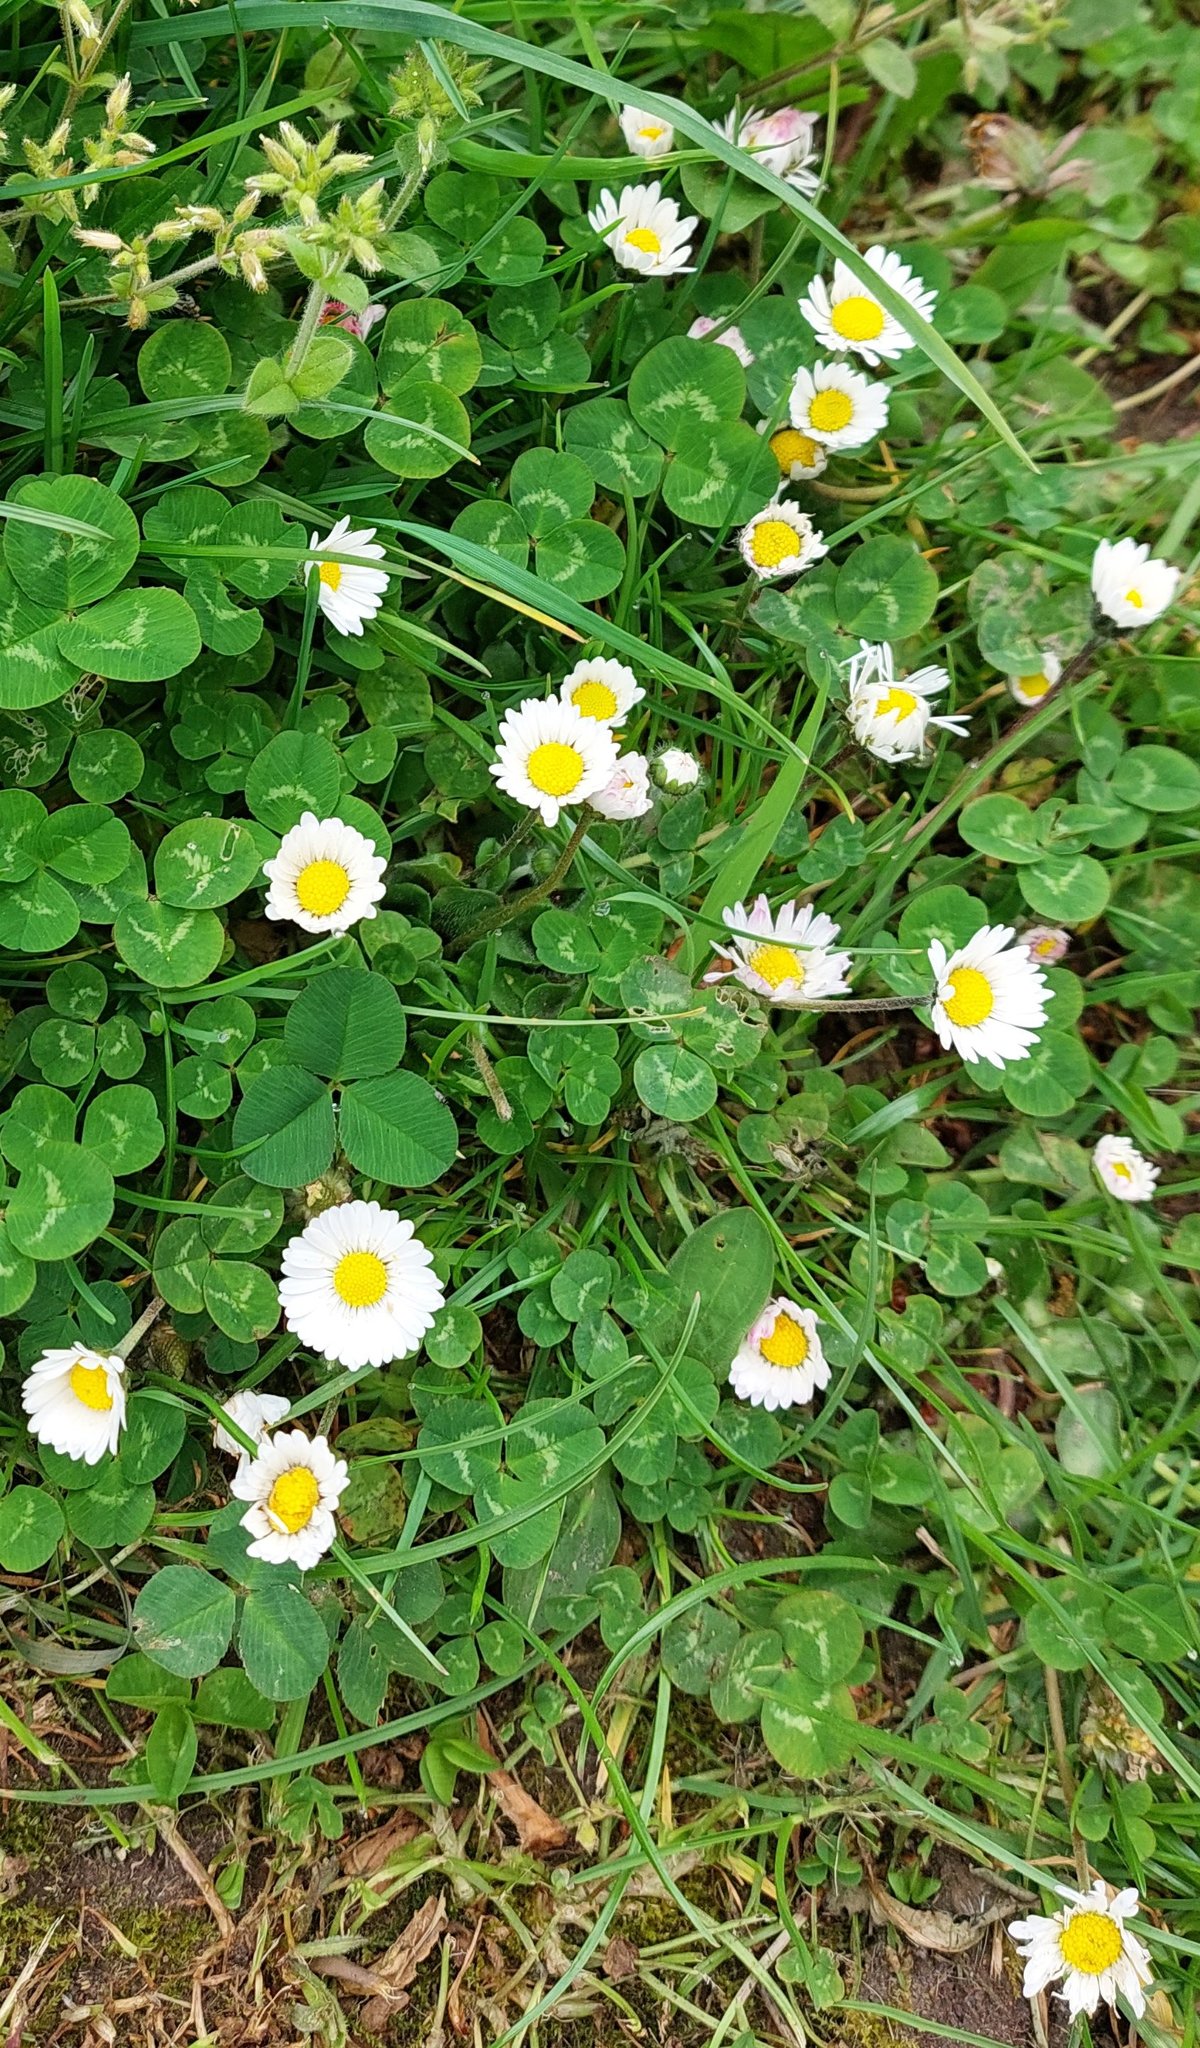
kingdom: Plantae
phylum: Tracheophyta
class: Magnoliopsida
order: Asterales
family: Asteraceae
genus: Bellis
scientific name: Bellis perennis
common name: Lawndaisy
